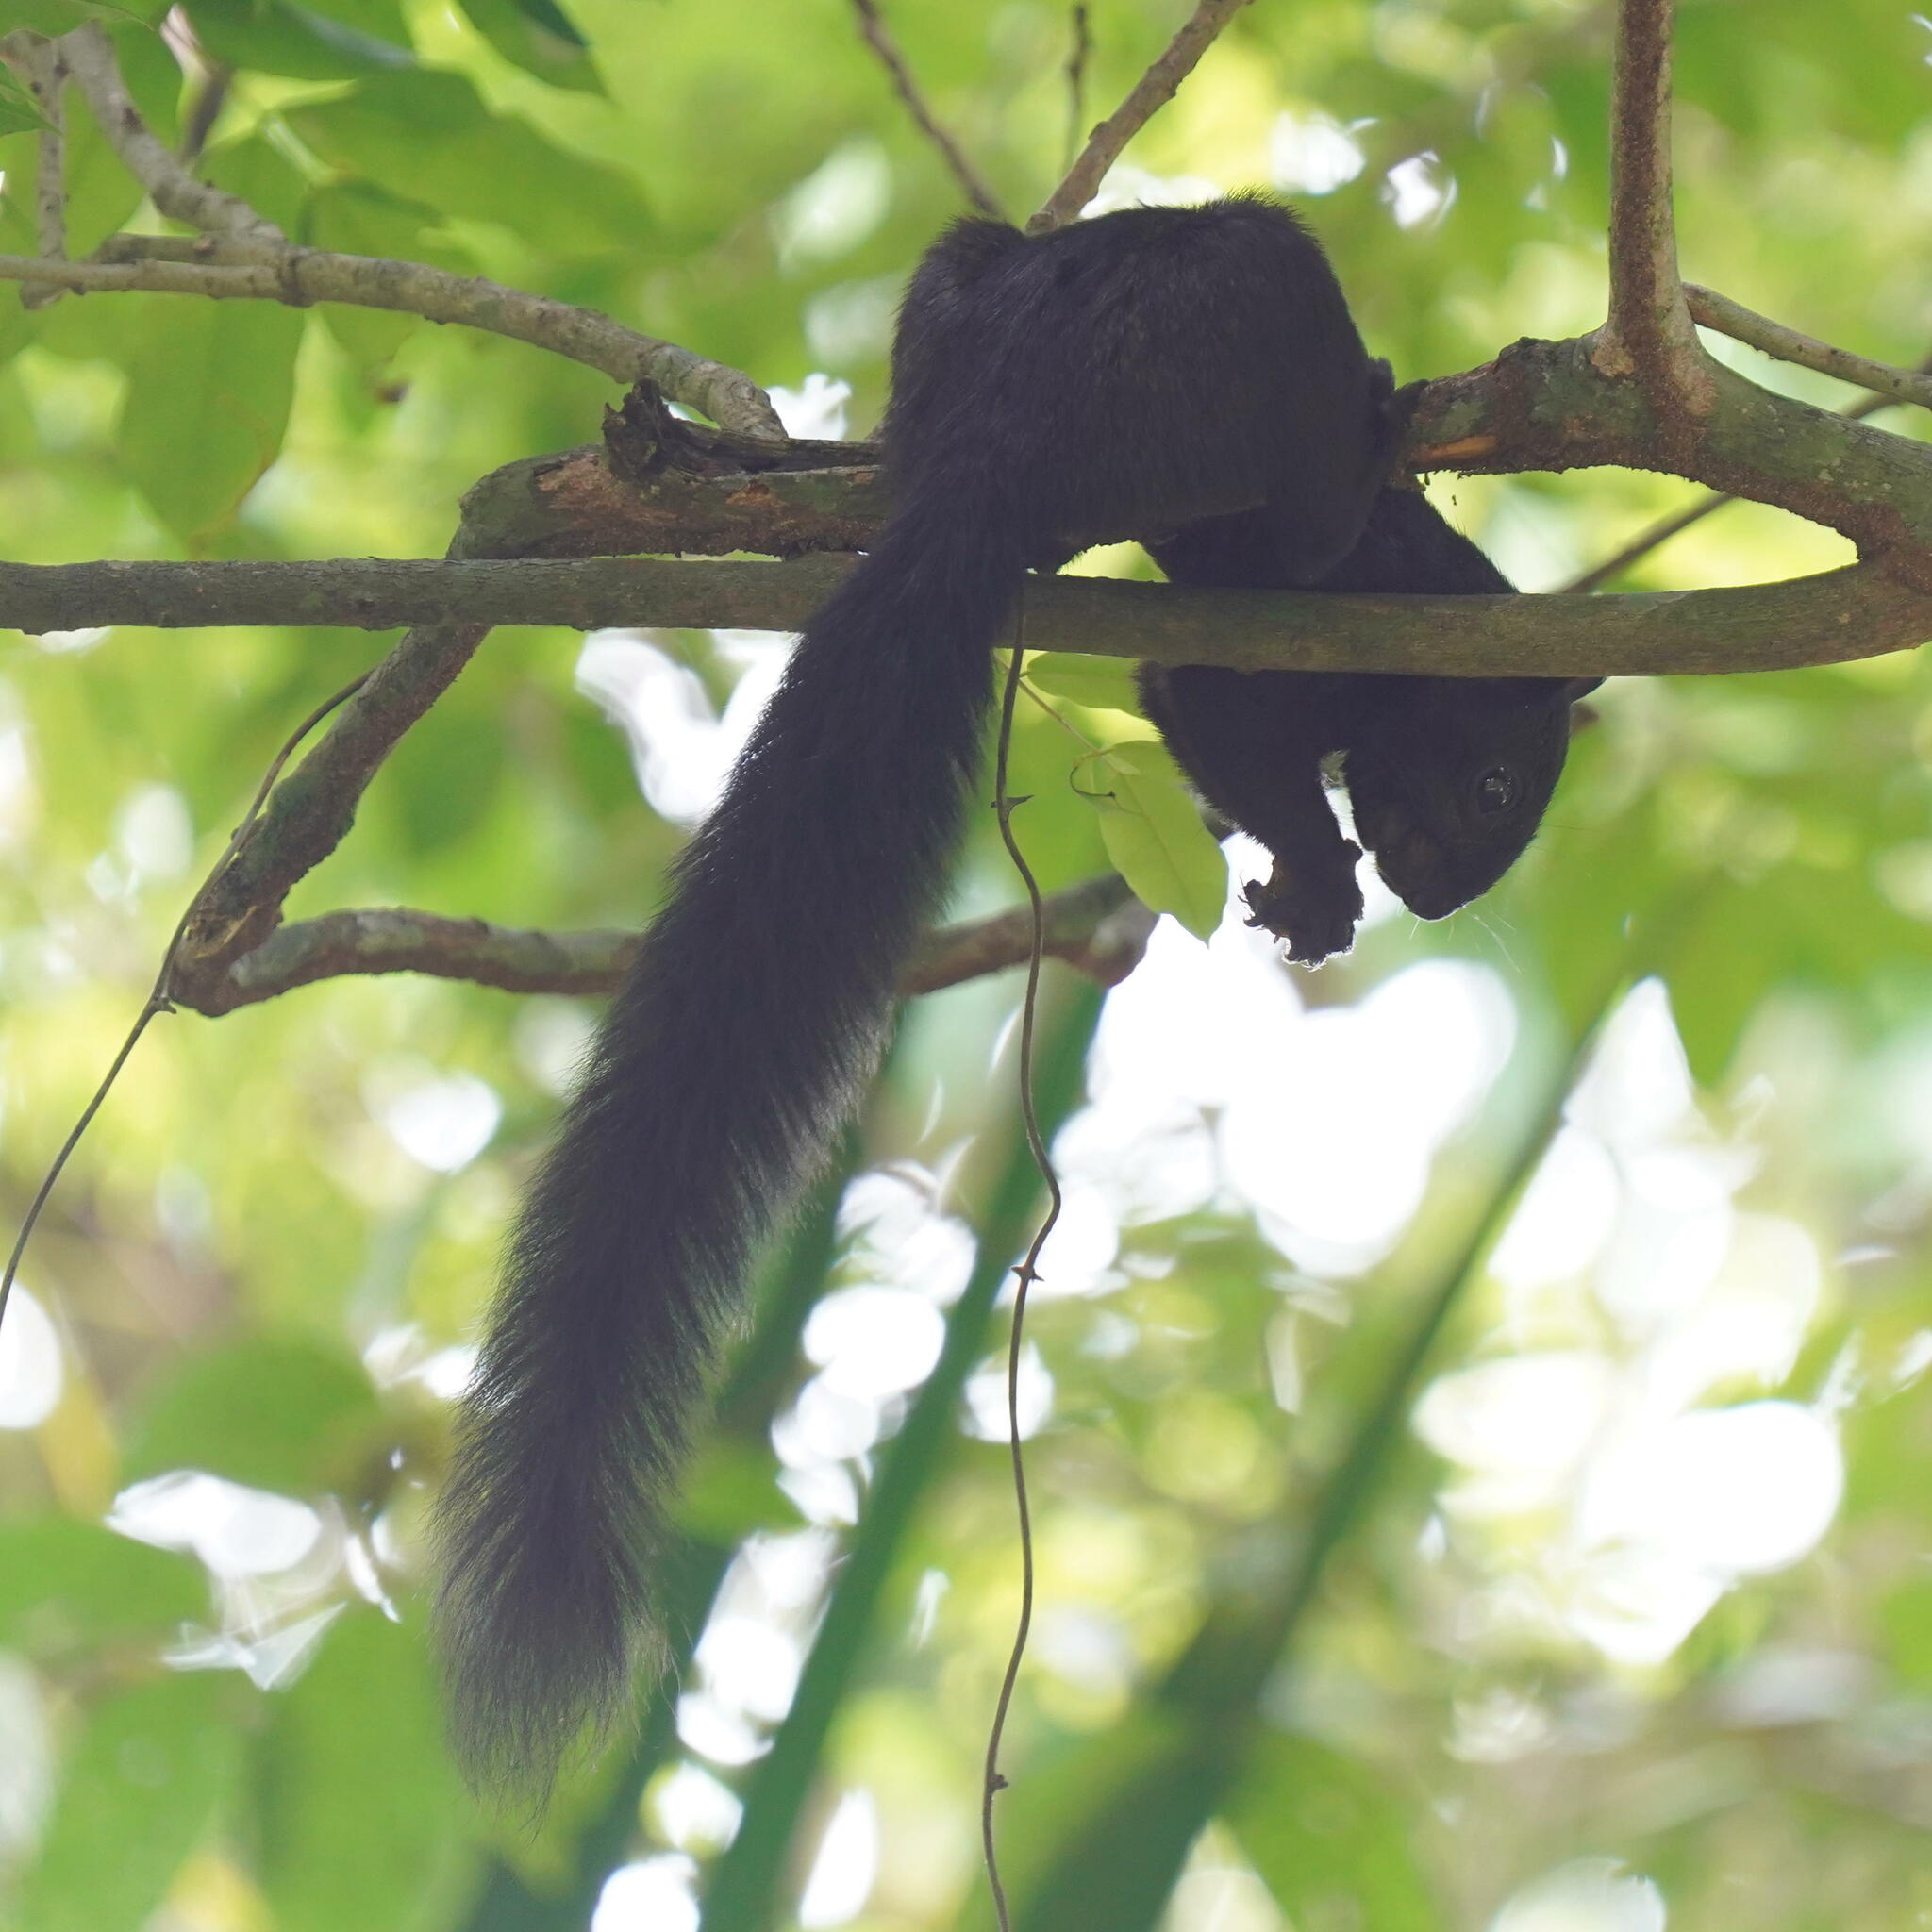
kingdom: Animalia
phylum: Chordata
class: Mammalia
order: Rodentia
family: Sciuridae
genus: Sciurus
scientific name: Sciurus variegatoides
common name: Variegated squirrel
